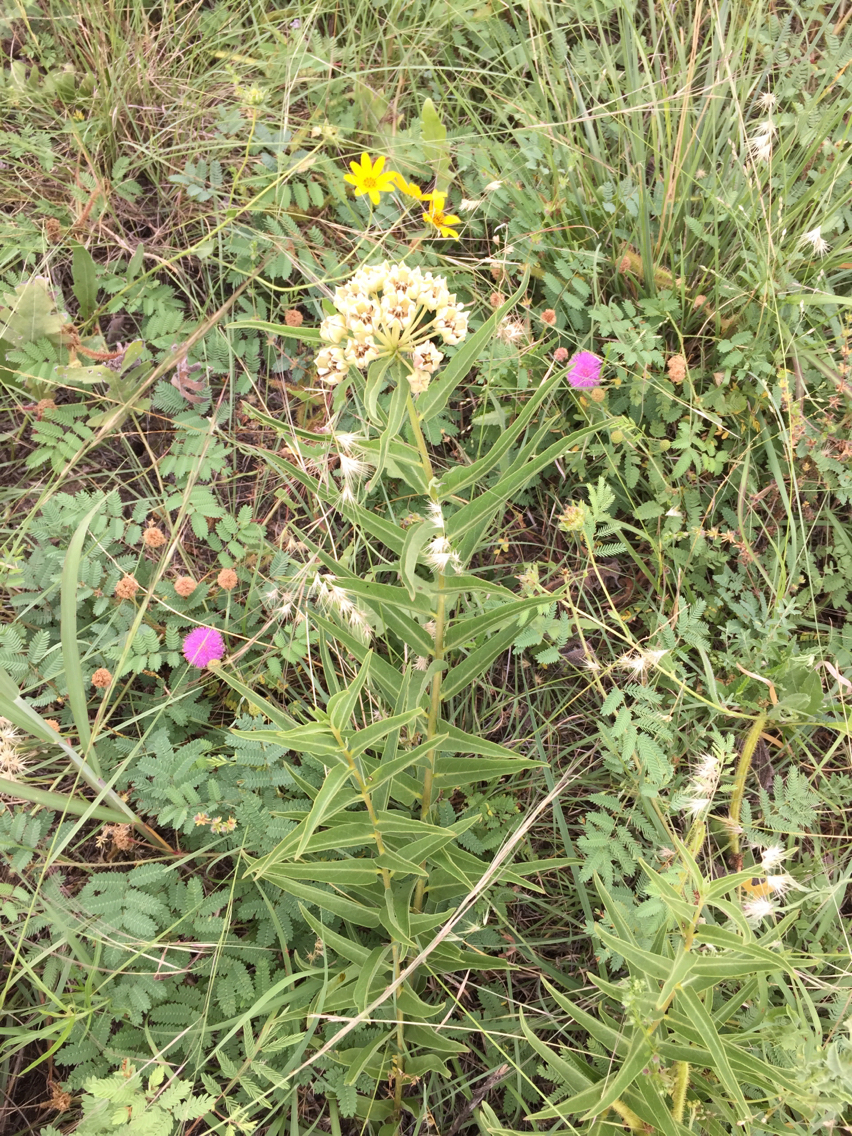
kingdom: Plantae
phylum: Tracheophyta
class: Magnoliopsida
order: Gentianales
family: Apocynaceae
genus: Asclepias
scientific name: Asclepias asperula
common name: Antelope horns
